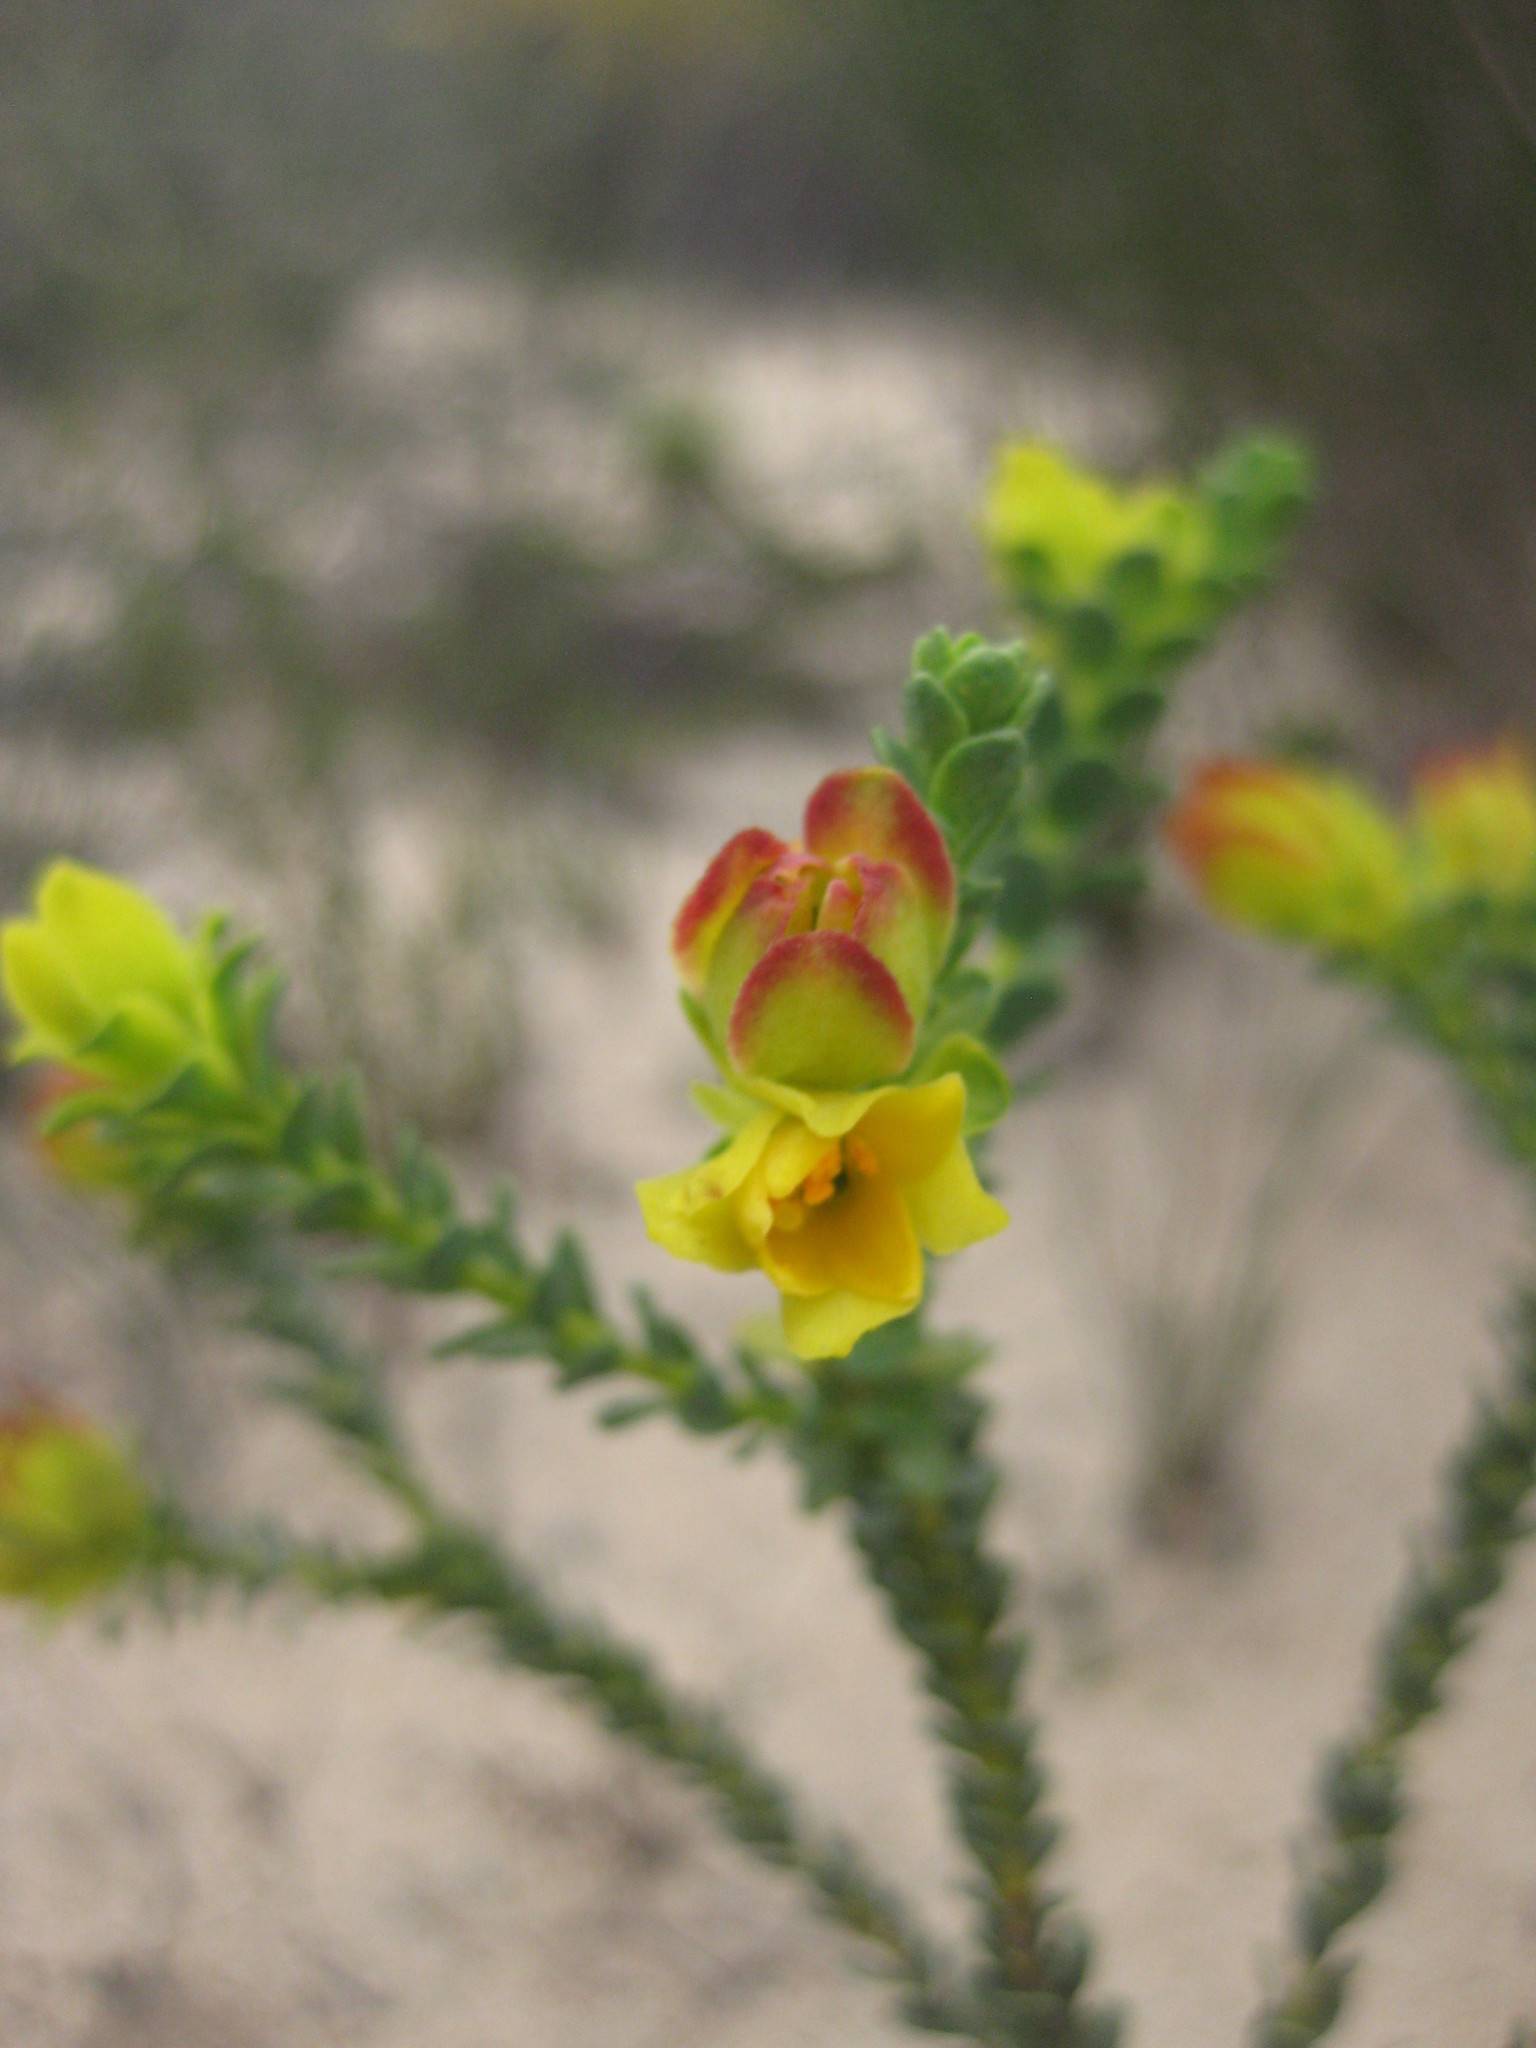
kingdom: Plantae
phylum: Tracheophyta
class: Magnoliopsida
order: Sapindales
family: Rutaceae
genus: Geleznowia
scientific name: Geleznowia verrucosa
